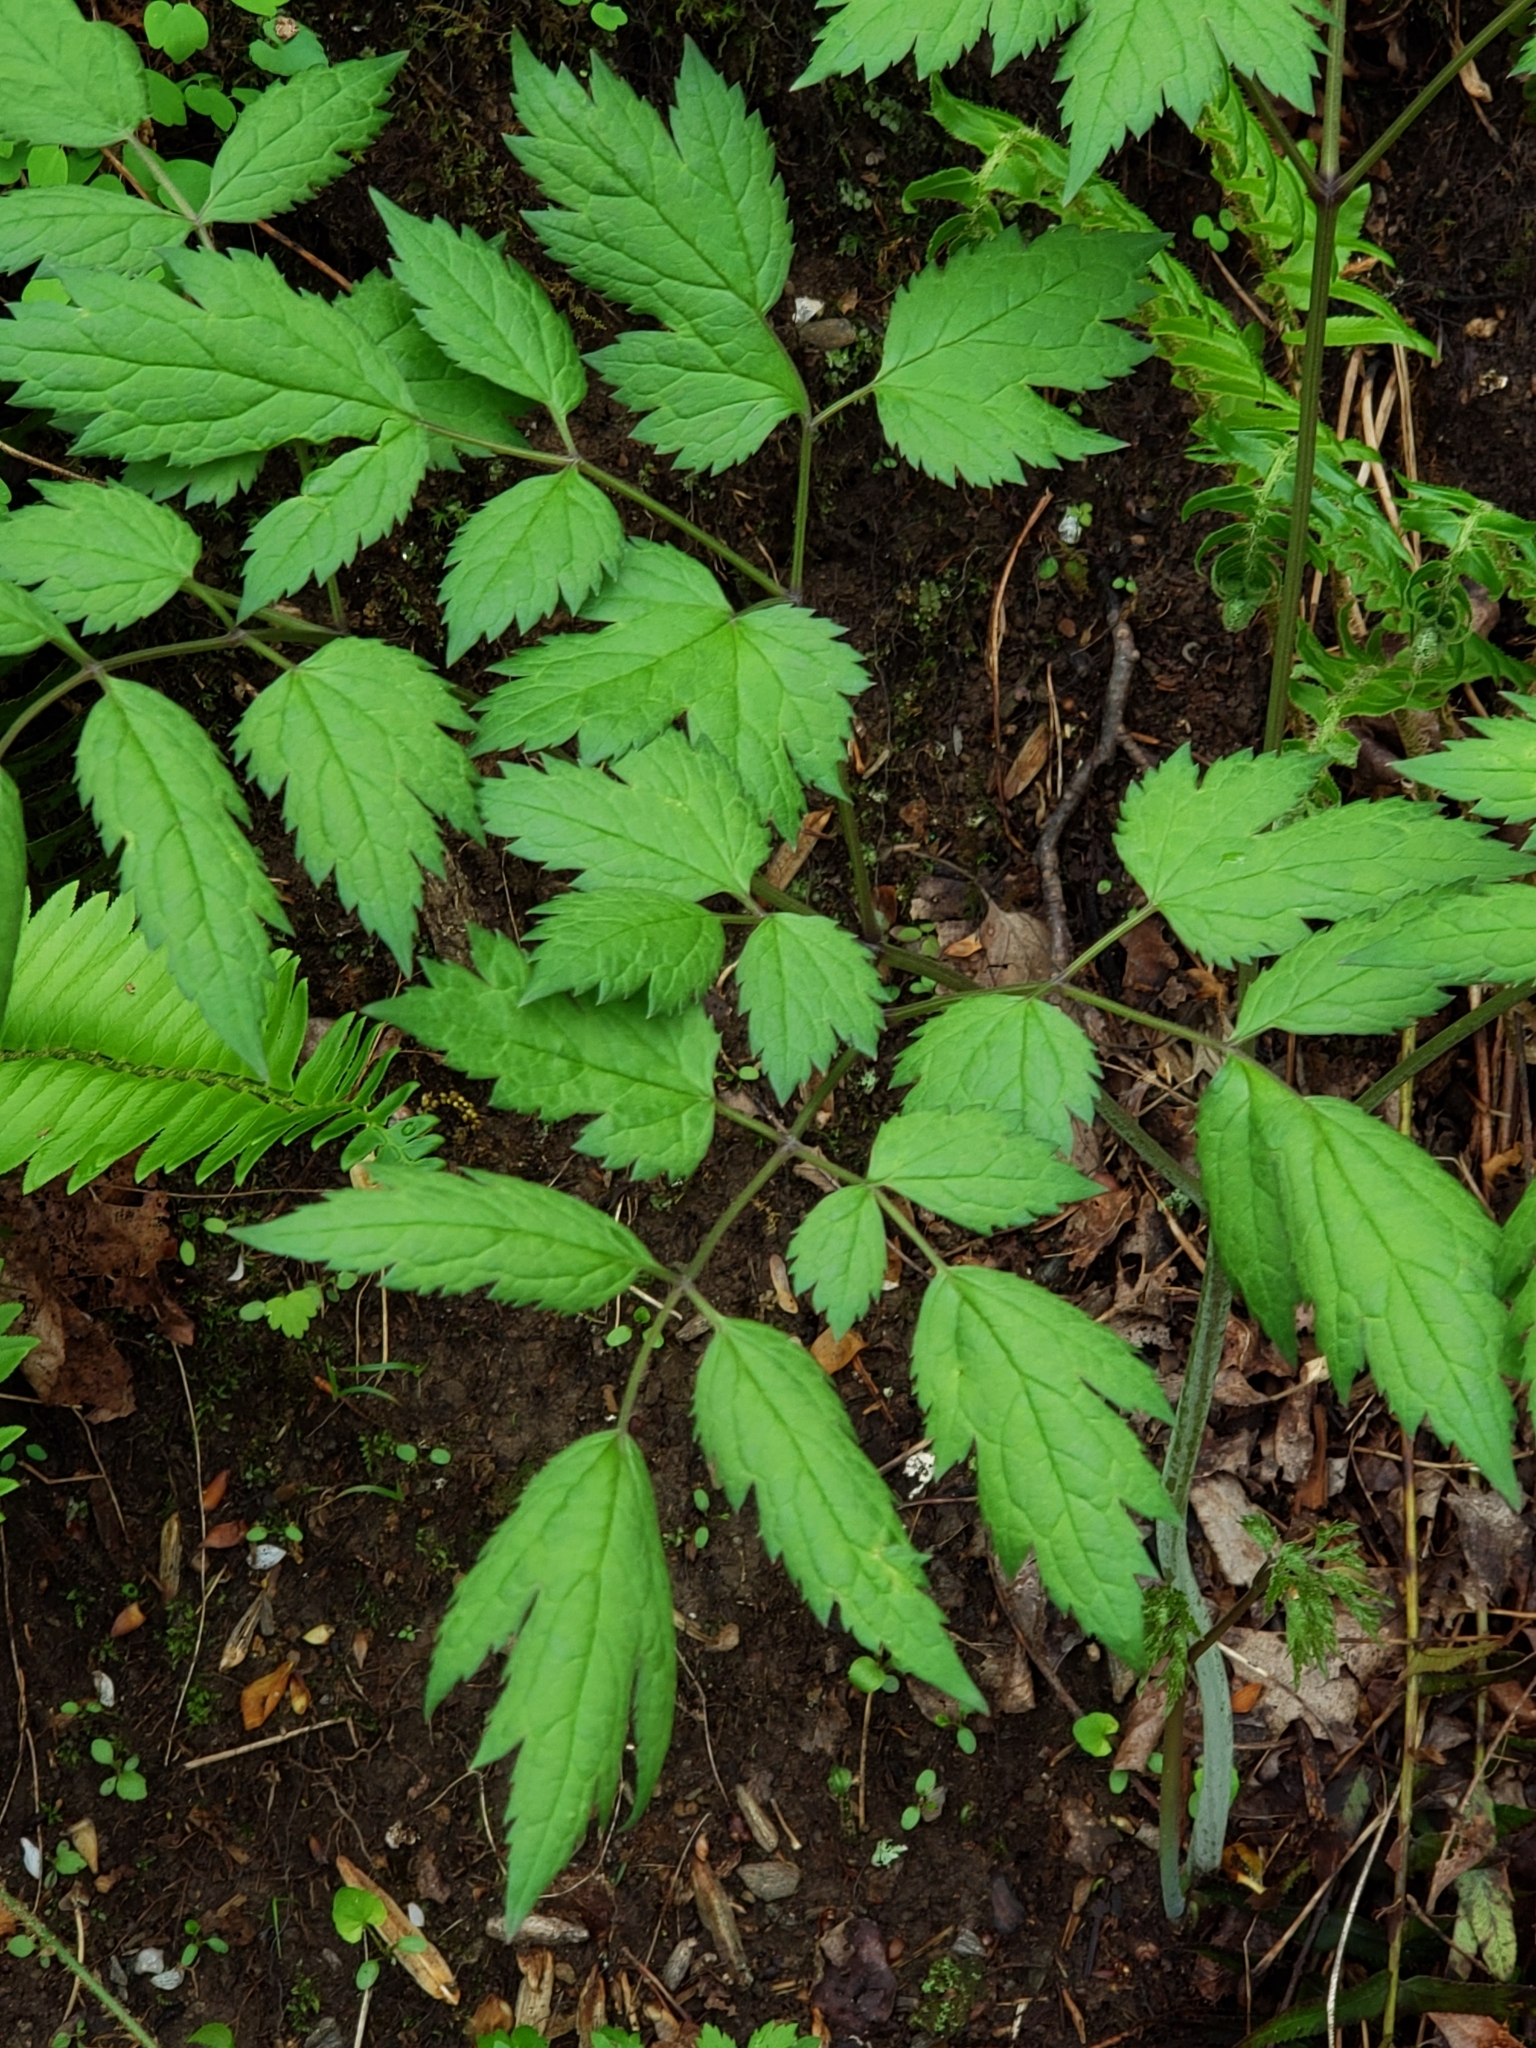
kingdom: Plantae
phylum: Tracheophyta
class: Magnoliopsida
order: Ranunculales
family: Ranunculaceae
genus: Actaea
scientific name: Actaea racemosa
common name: Black cohosh
